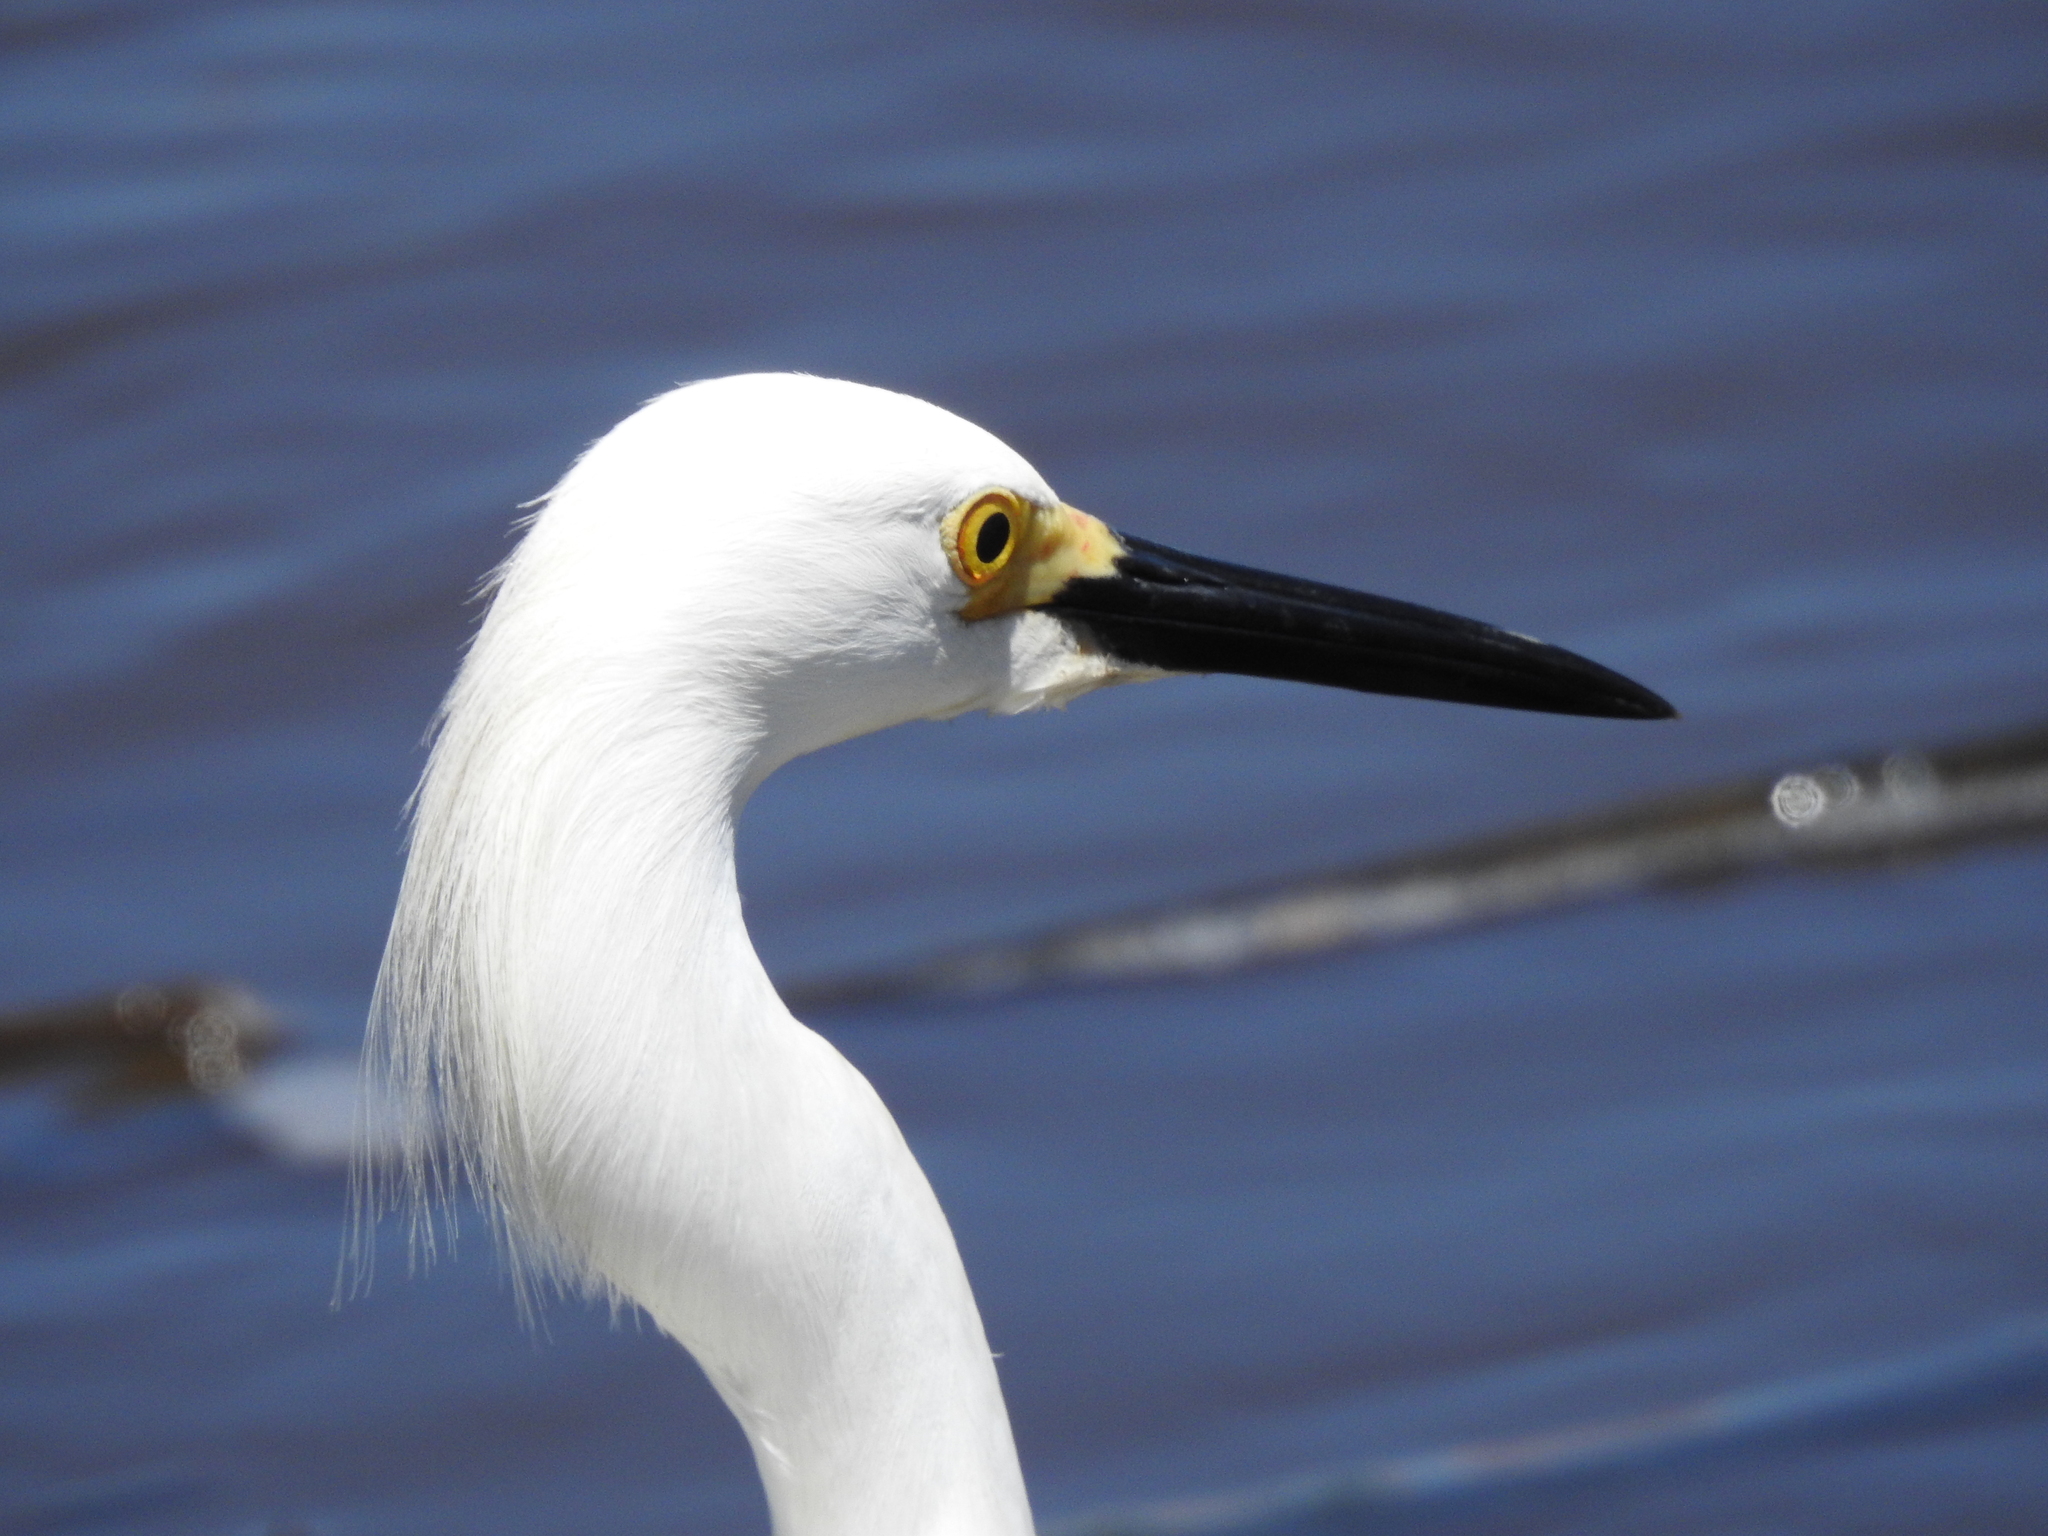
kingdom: Animalia
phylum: Chordata
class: Aves
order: Pelecaniformes
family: Ardeidae
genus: Egretta
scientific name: Egretta thula
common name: Snowy egret
